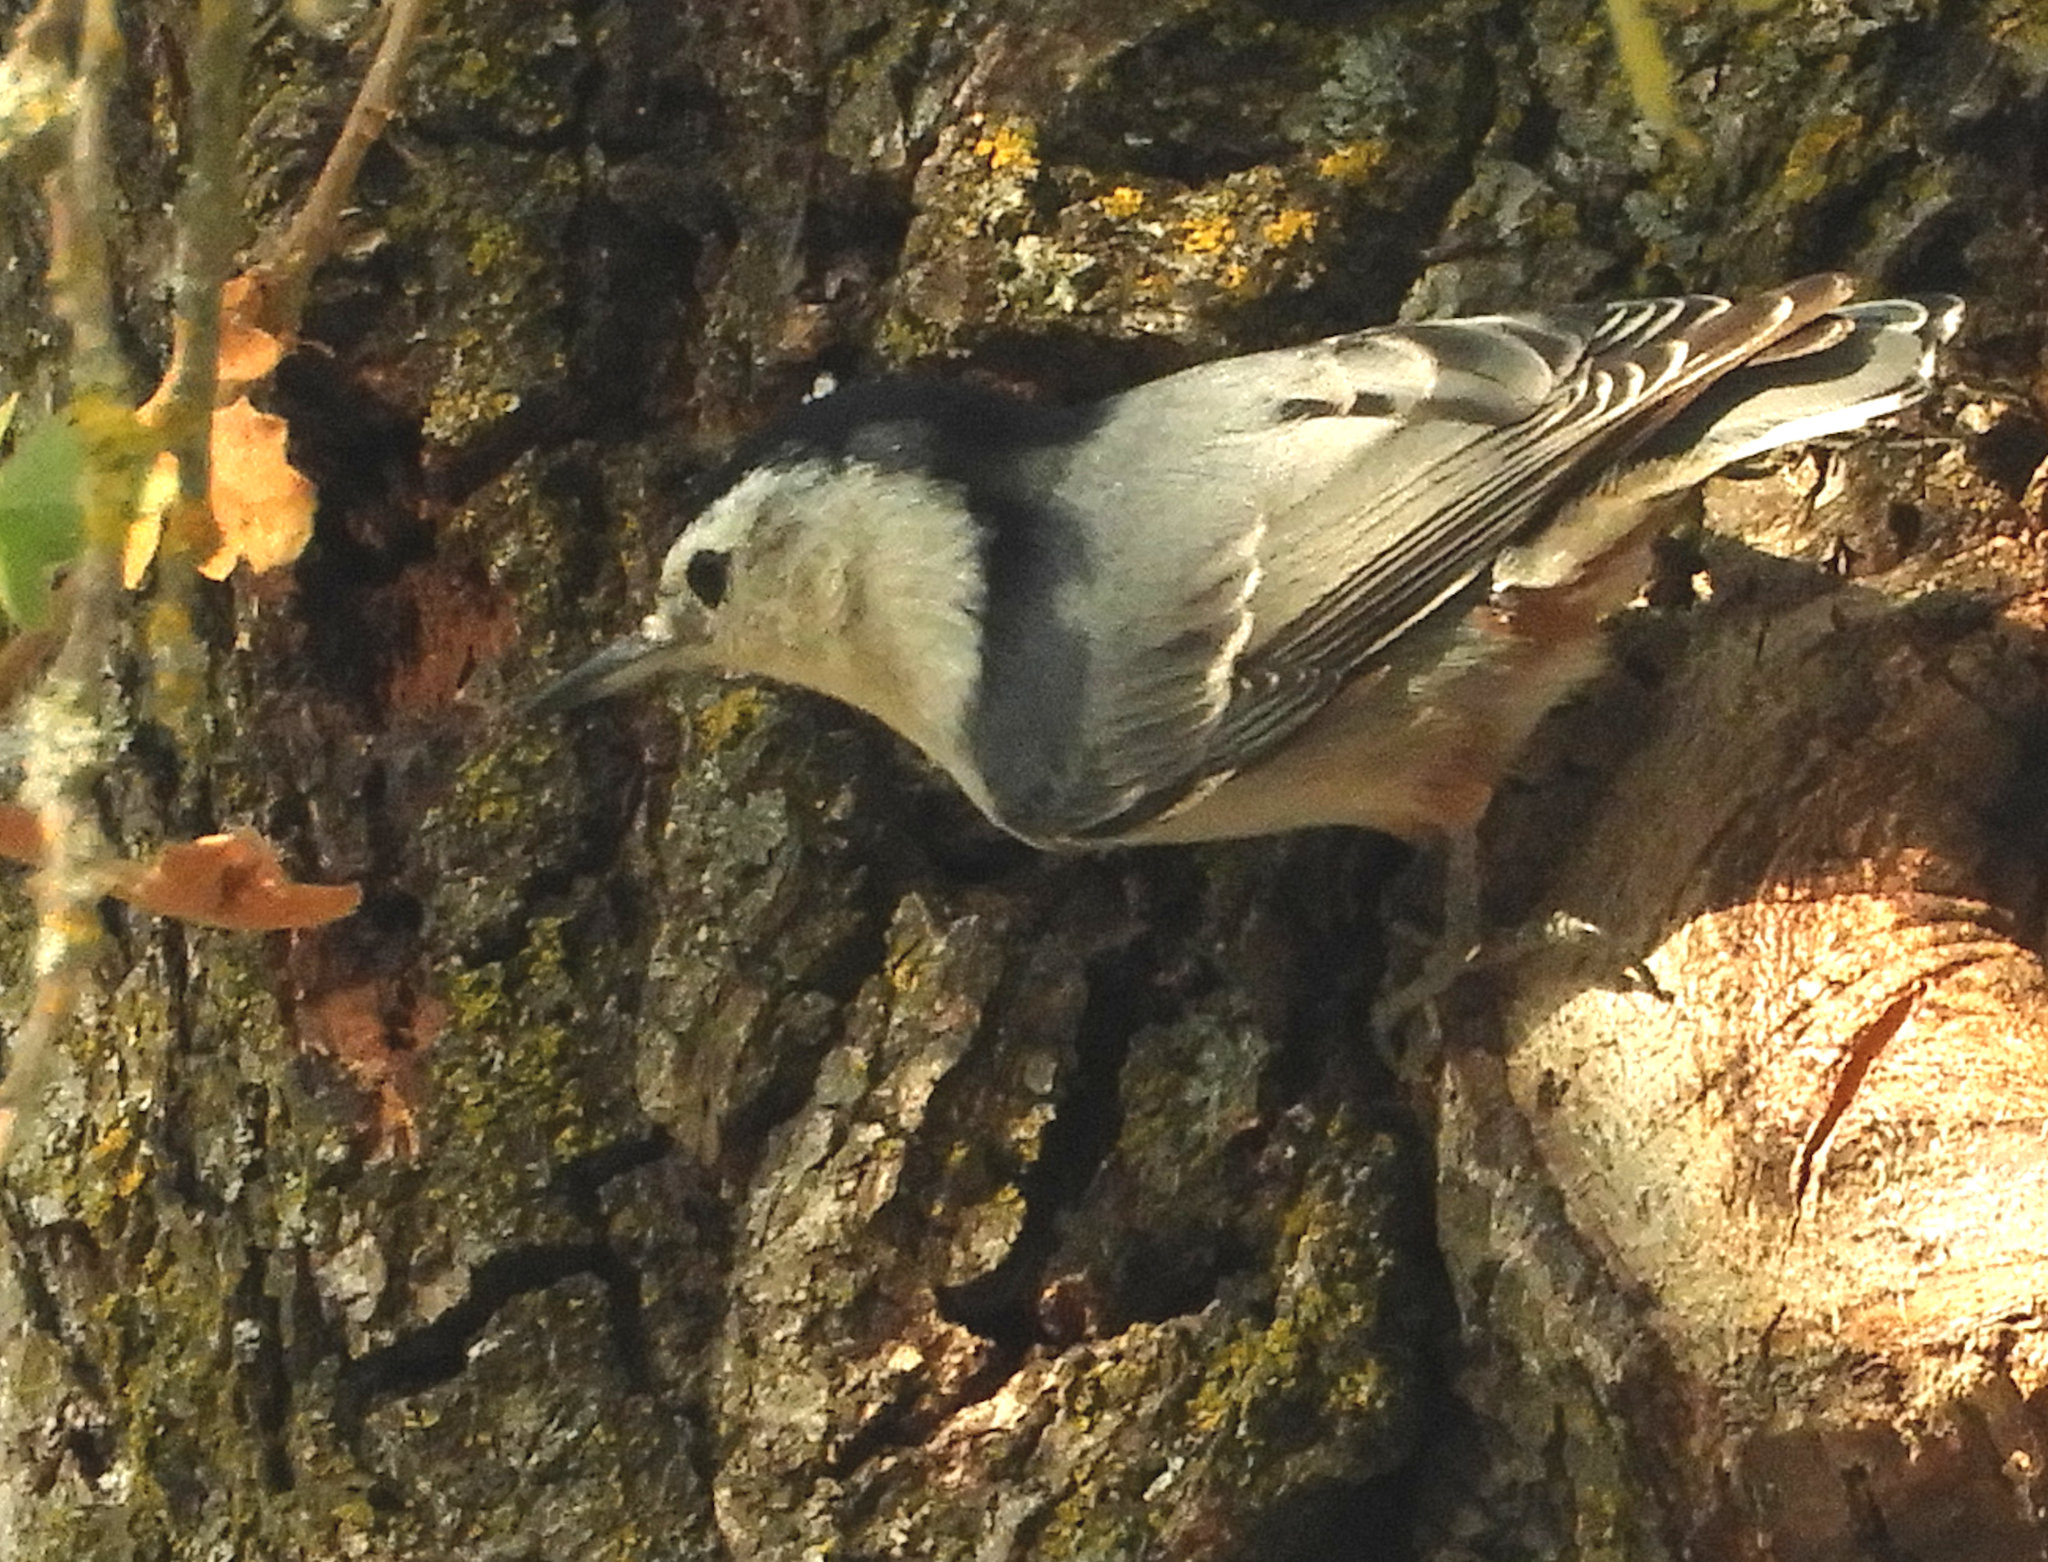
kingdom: Animalia
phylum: Chordata
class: Aves
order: Passeriformes
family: Sittidae
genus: Sitta
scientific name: Sitta carolinensis
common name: White-breasted nuthatch
